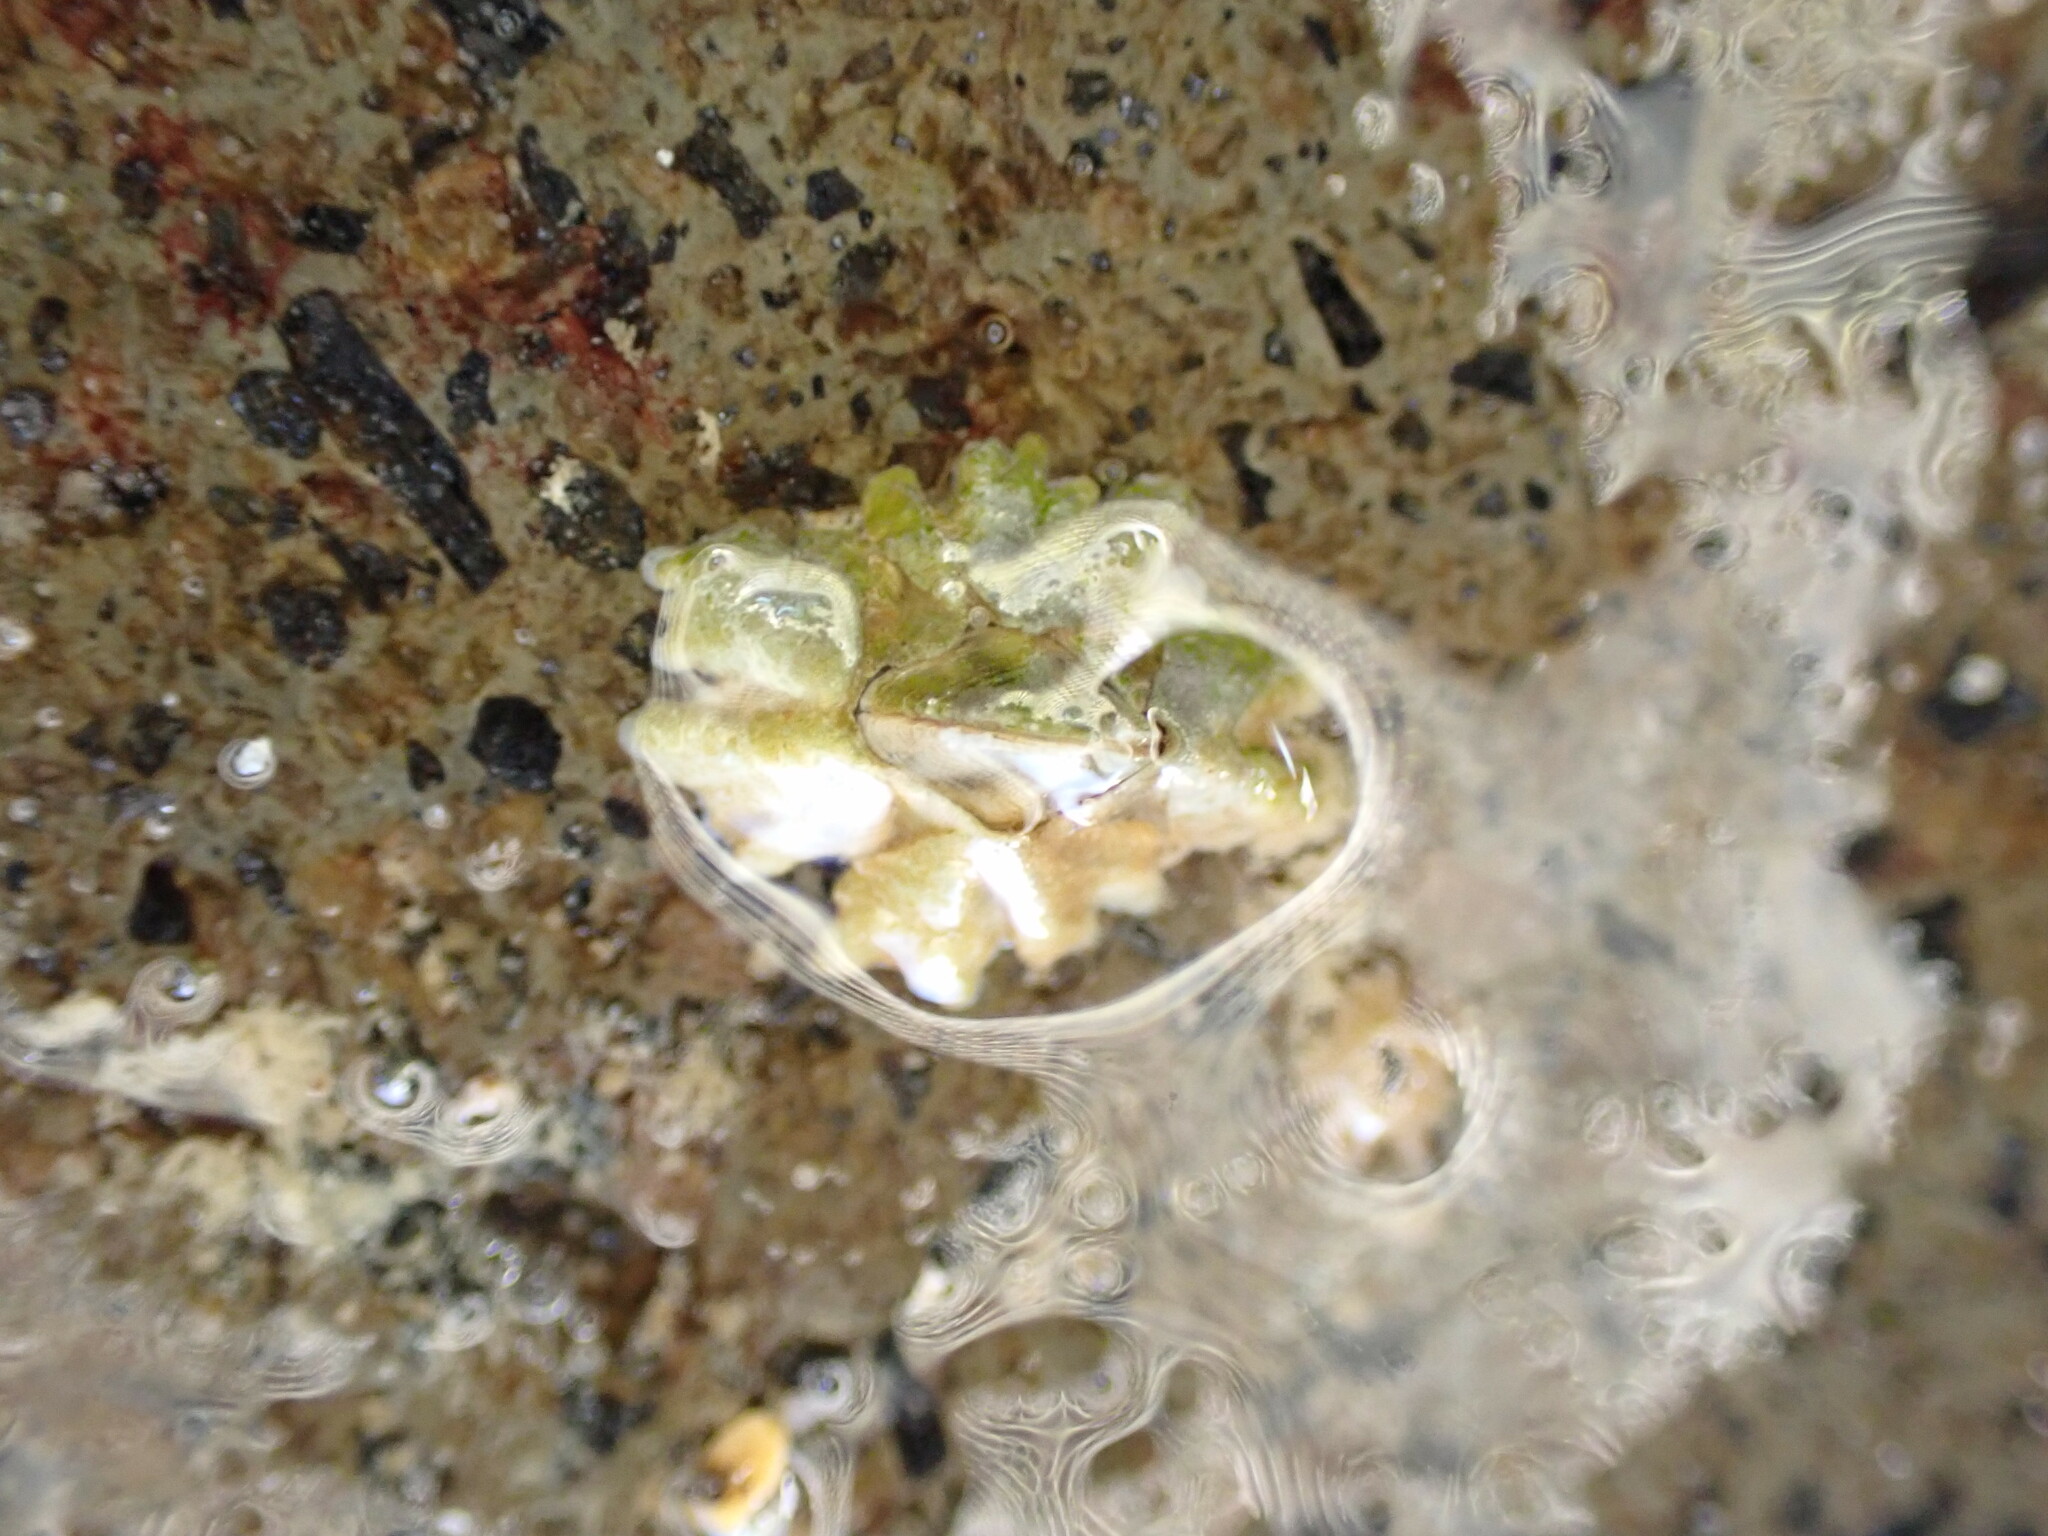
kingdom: Animalia
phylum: Arthropoda
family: Elminiidae
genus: Austrominius
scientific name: Austrominius modestus
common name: Australasian barnacle
